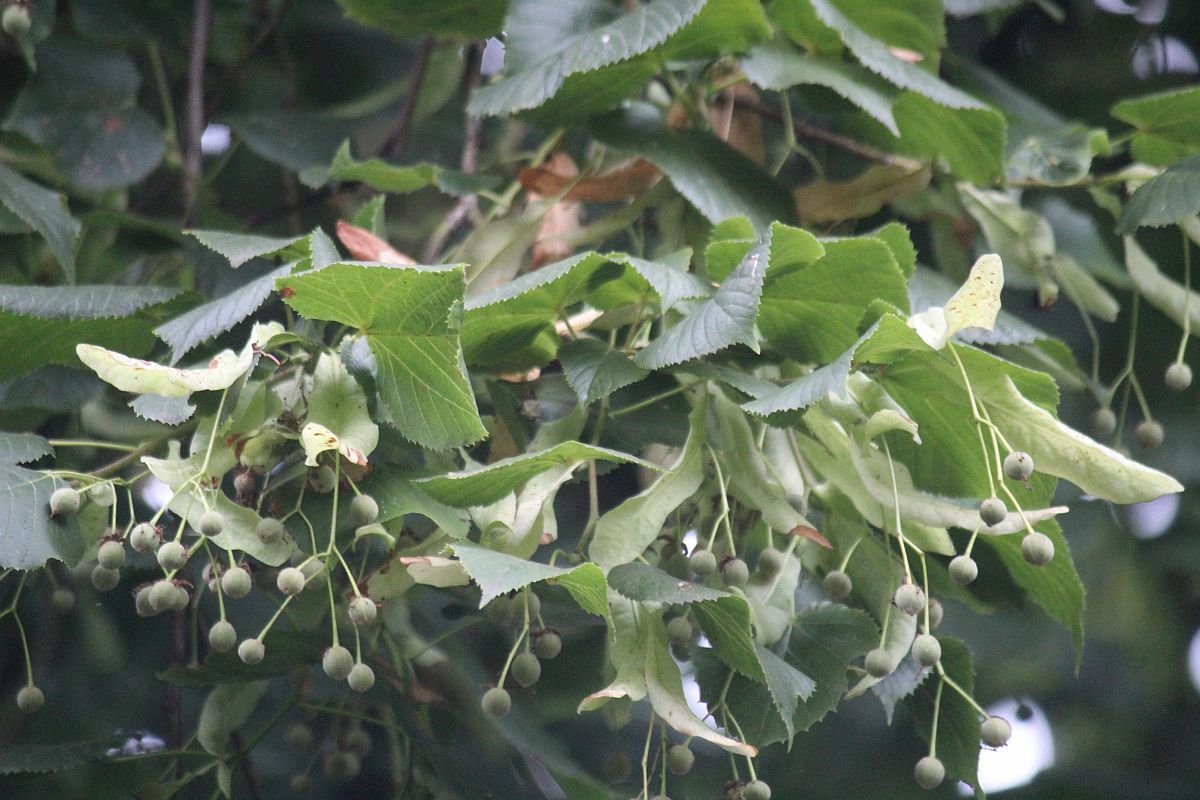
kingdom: Plantae
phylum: Tracheophyta
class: Magnoliopsida
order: Malvales
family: Malvaceae
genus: Tilia
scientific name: Tilia europaea
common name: European linden
